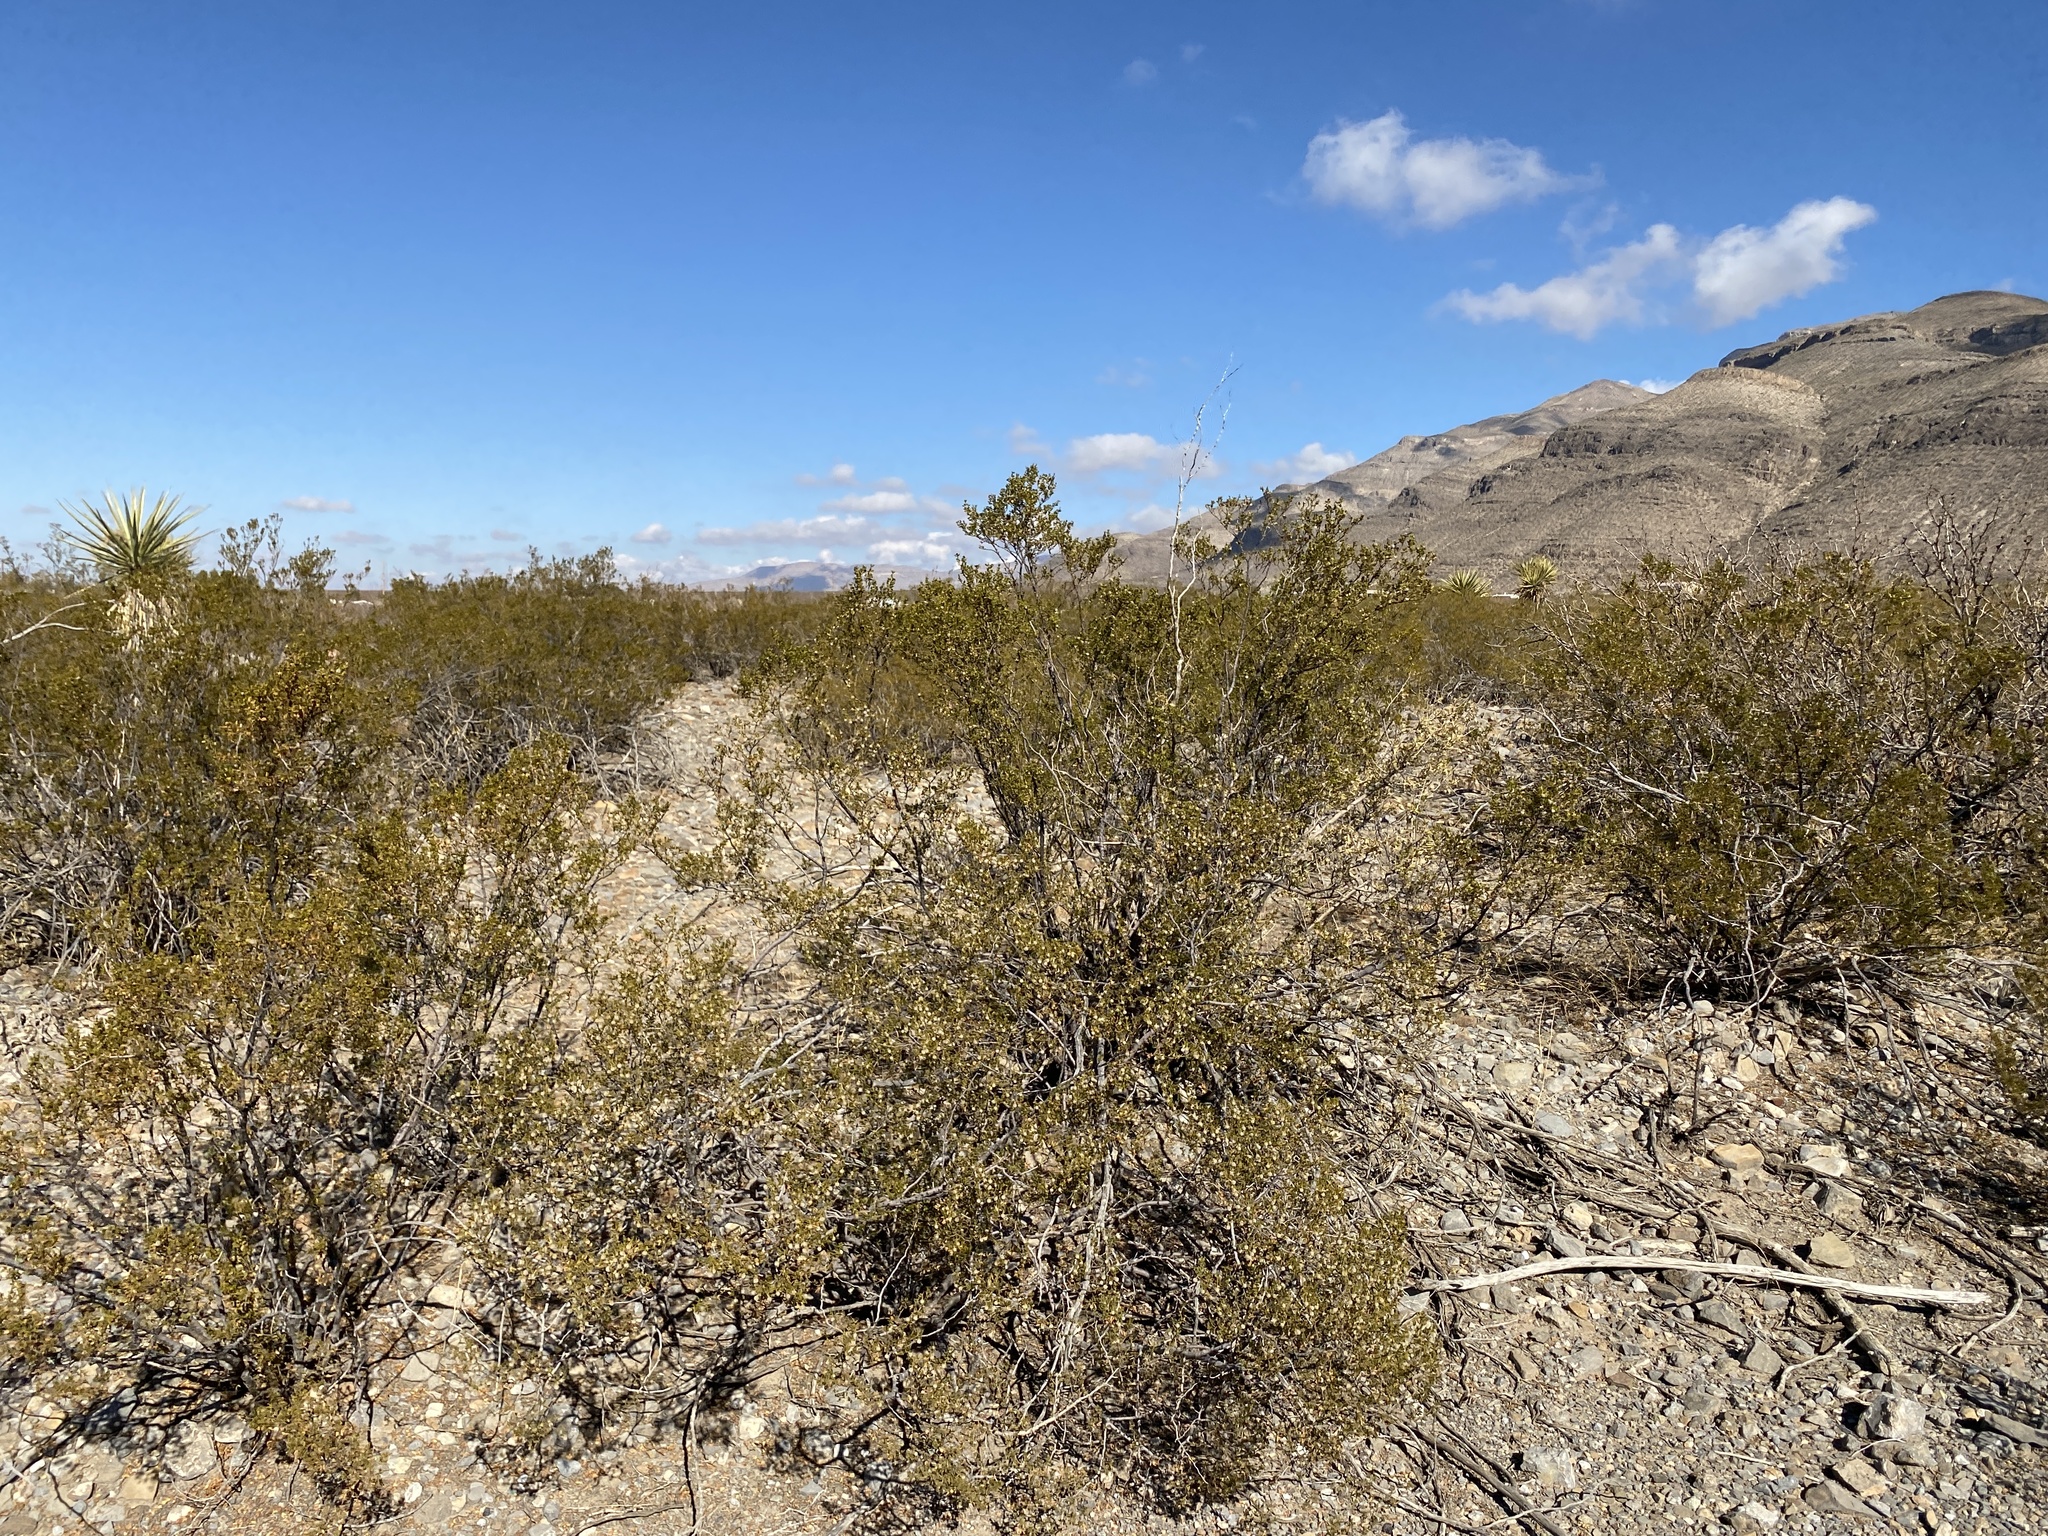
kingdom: Plantae
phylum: Tracheophyta
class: Magnoliopsida
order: Zygophyllales
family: Zygophyllaceae
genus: Larrea
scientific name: Larrea tridentata
